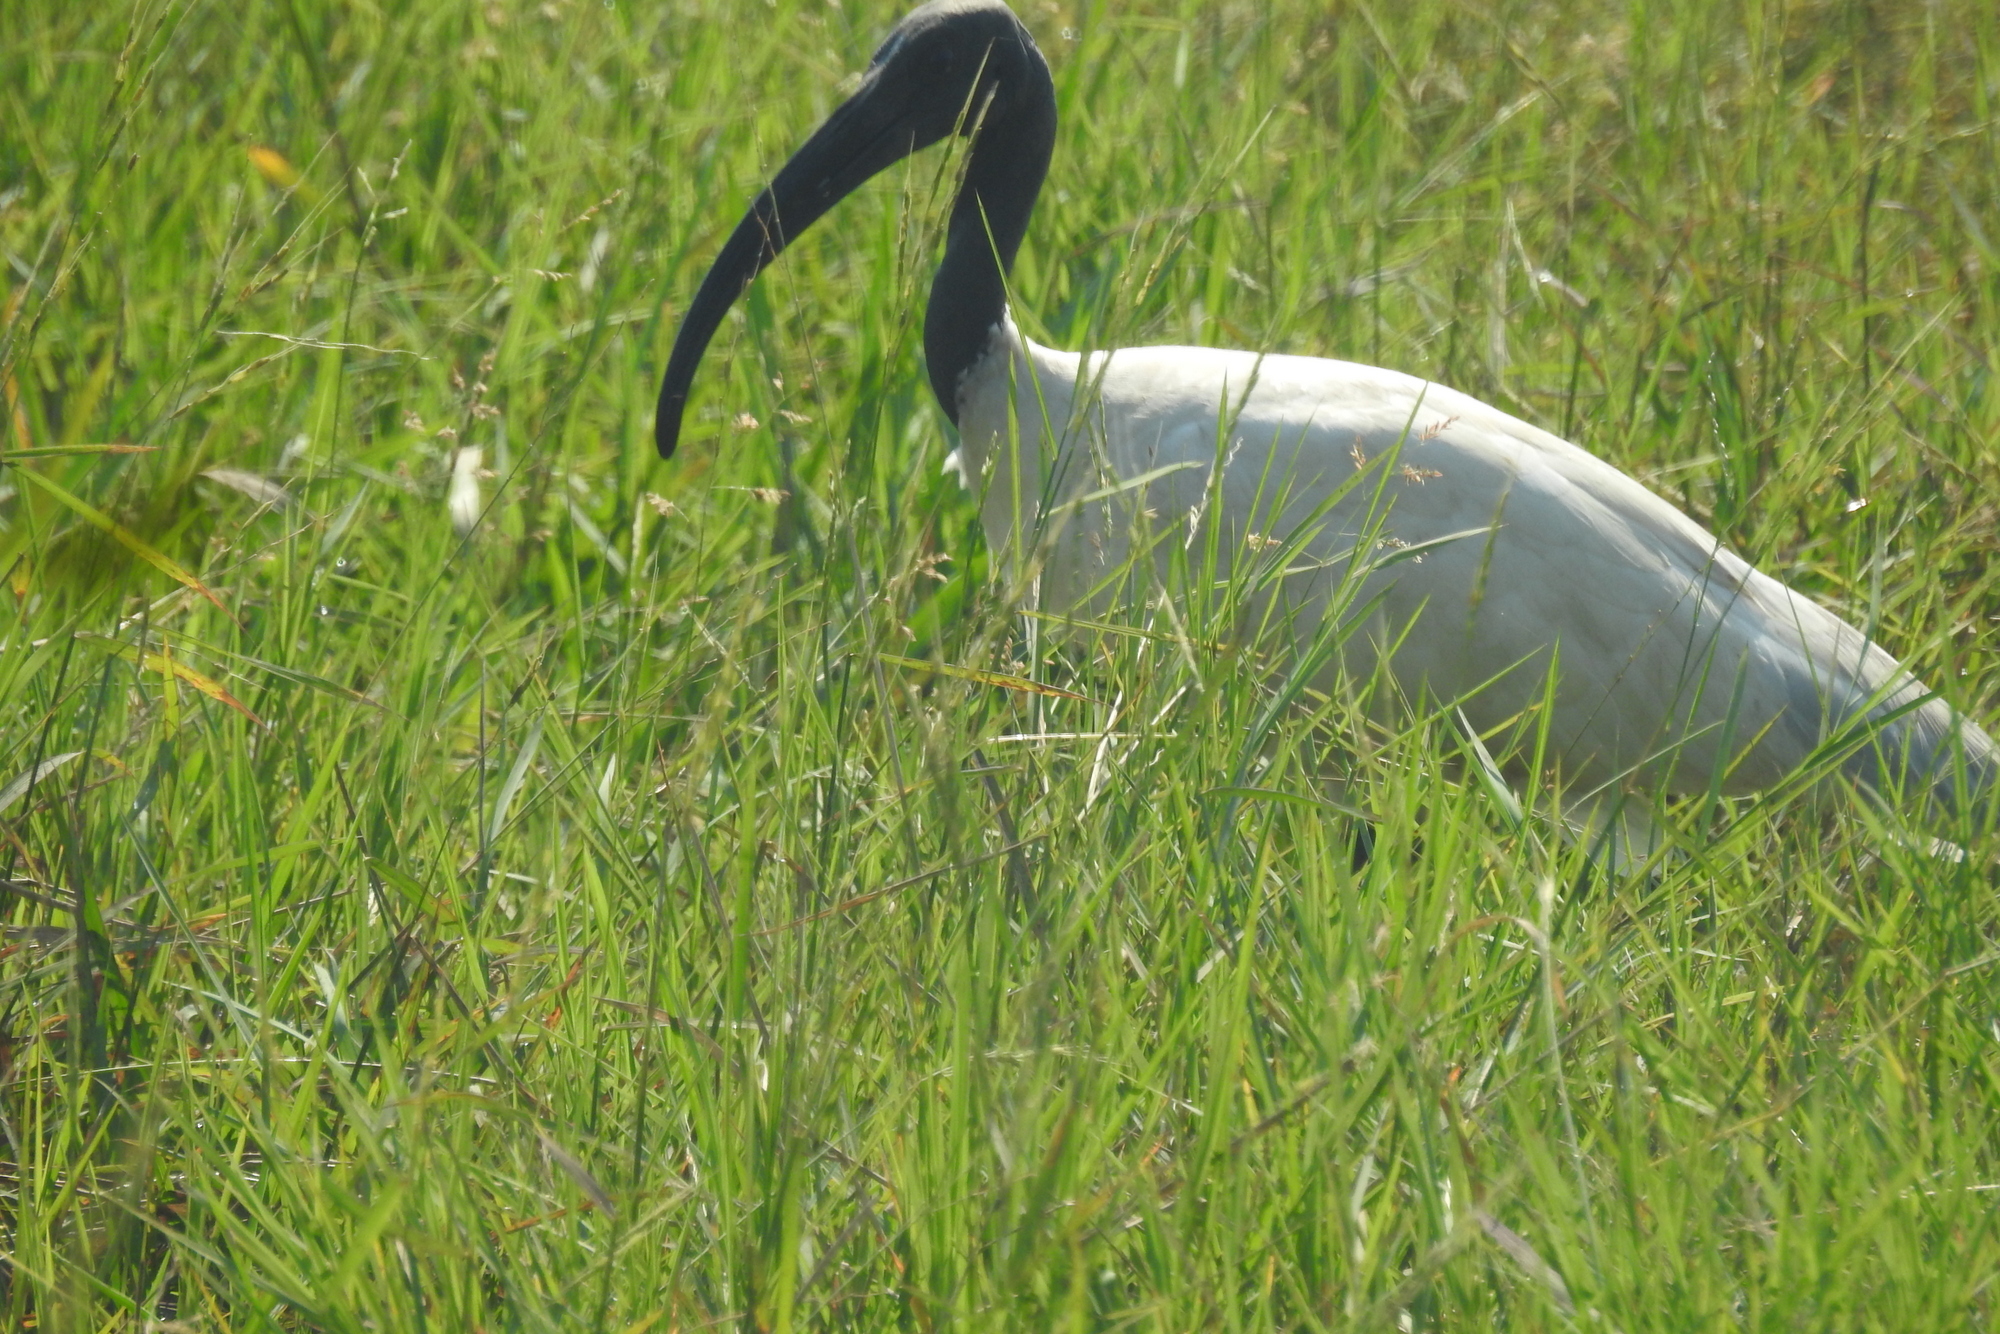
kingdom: Animalia
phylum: Chordata
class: Aves
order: Pelecaniformes
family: Threskiornithidae
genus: Threskiornis
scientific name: Threskiornis melanocephalus
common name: Black-headed ibis
